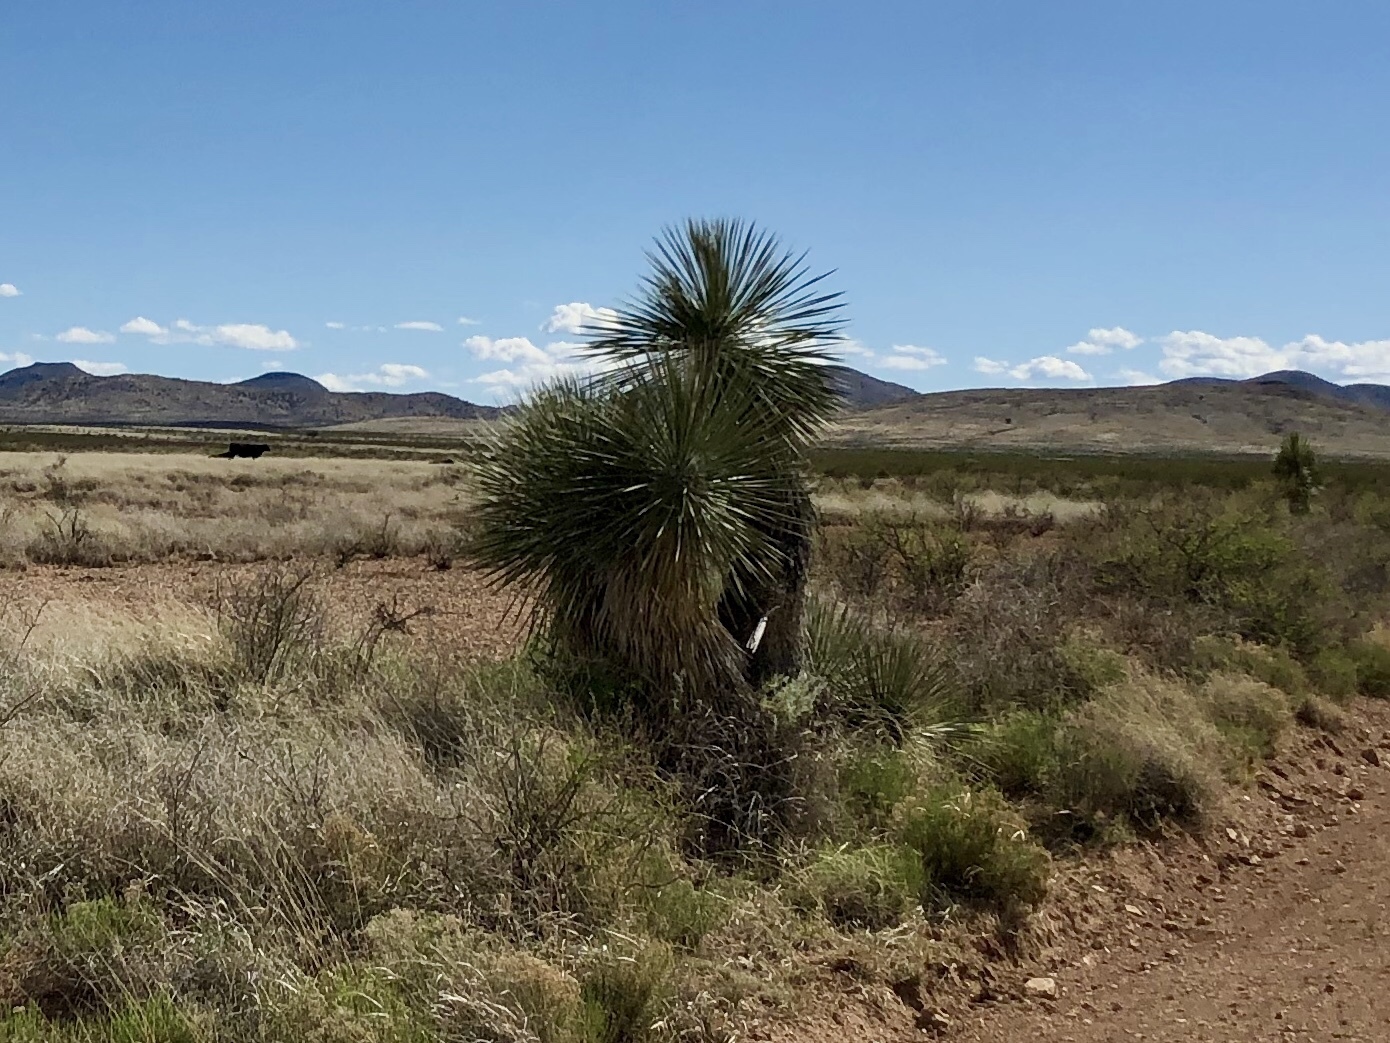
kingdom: Plantae
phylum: Tracheophyta
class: Liliopsida
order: Asparagales
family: Asparagaceae
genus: Yucca
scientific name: Yucca elata
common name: Palmella
